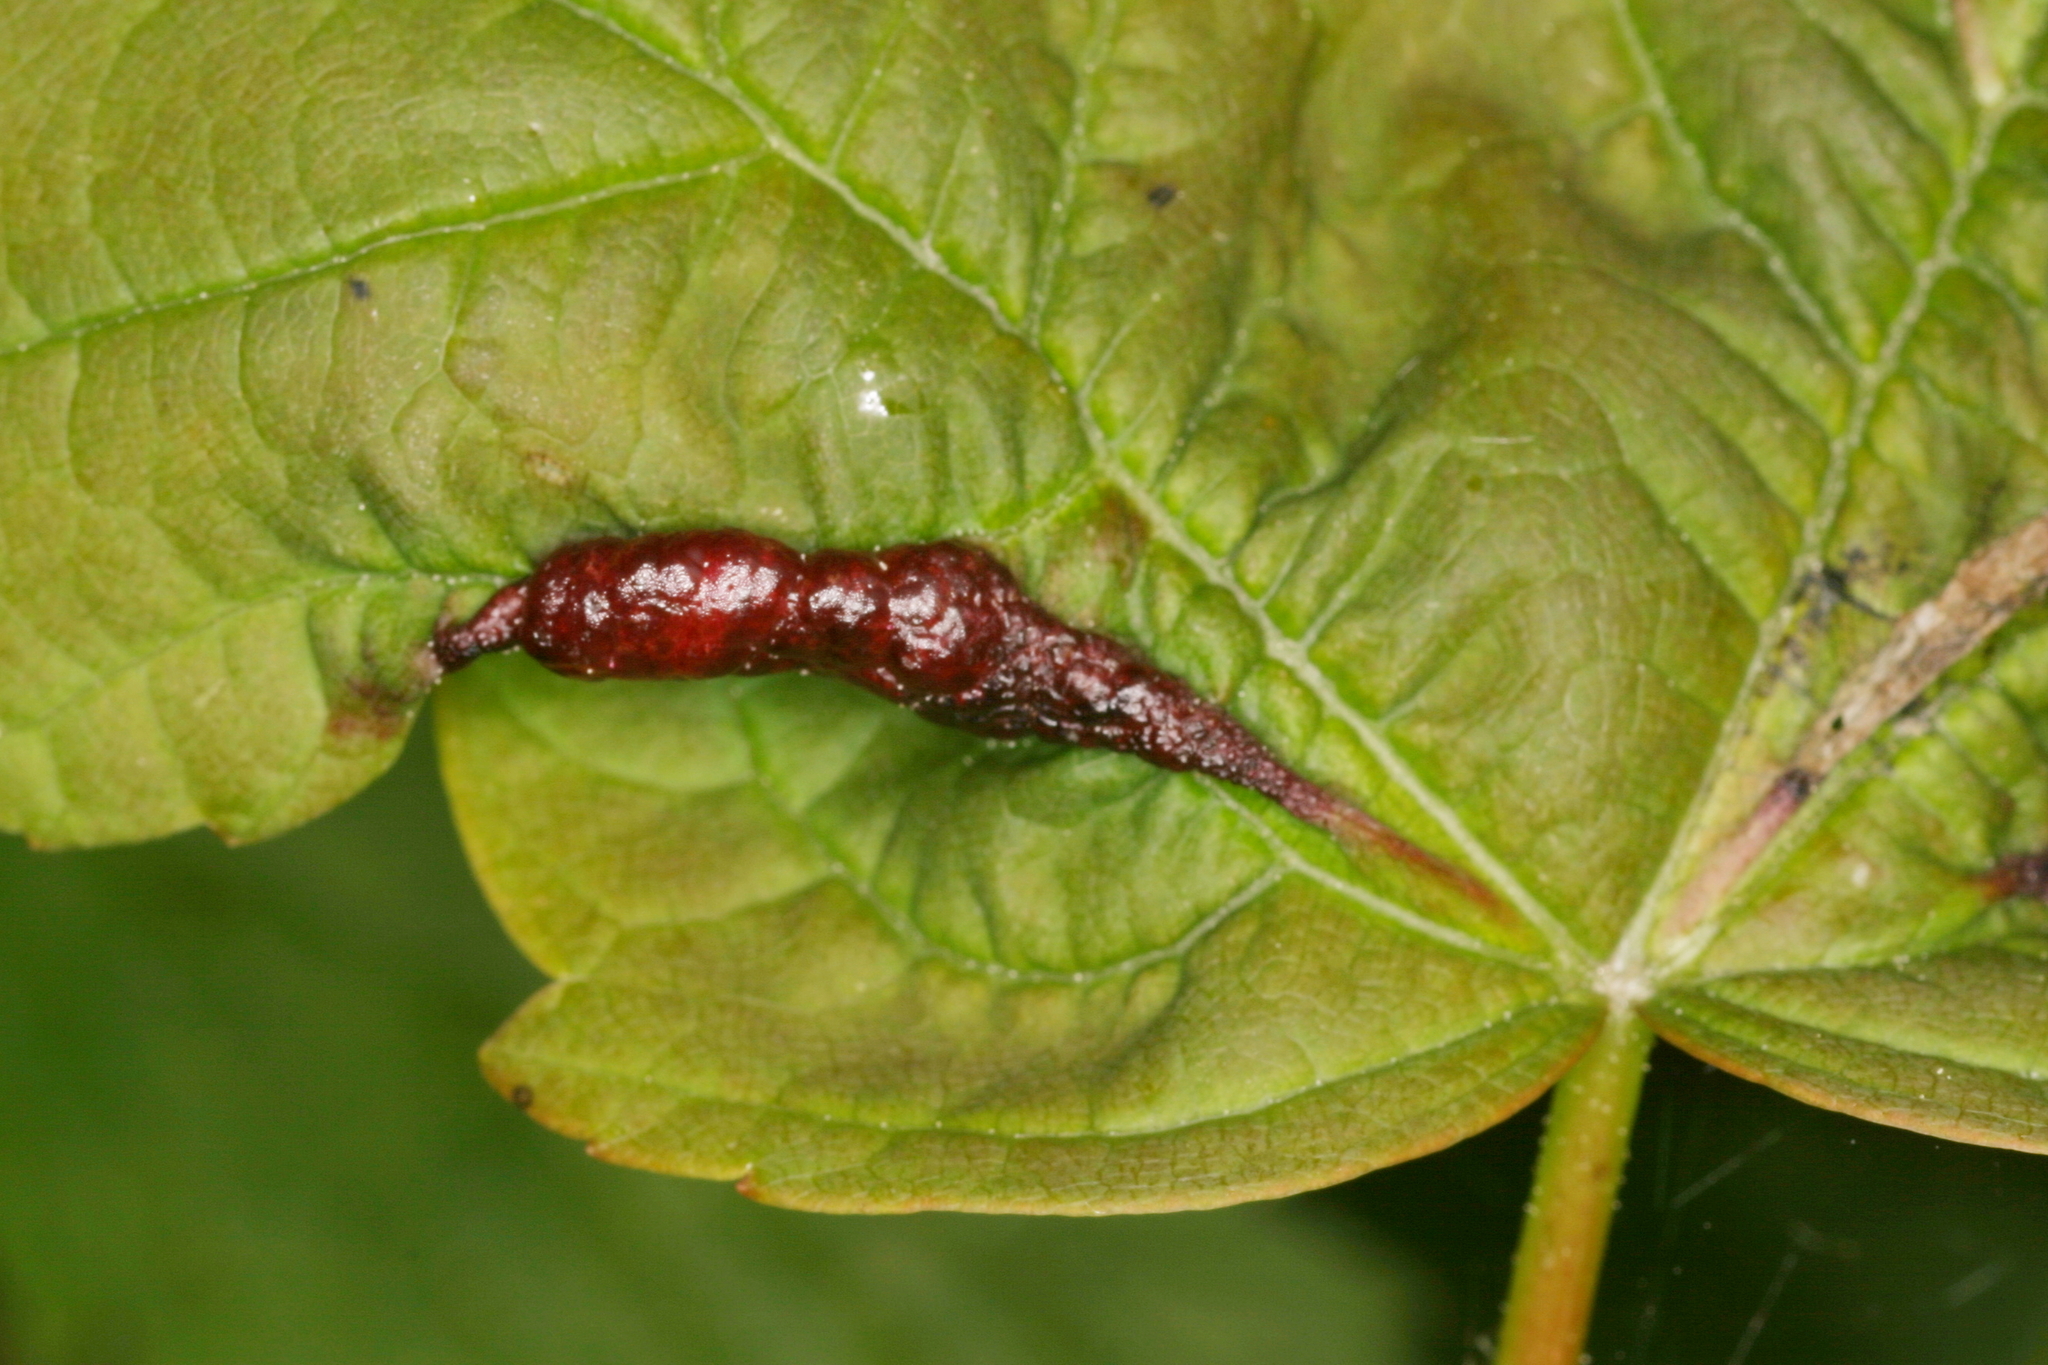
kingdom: Animalia
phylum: Arthropoda
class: Insecta
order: Diptera
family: Cecidomyiidae
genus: Contarinia
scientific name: Contarinia acerplicans
